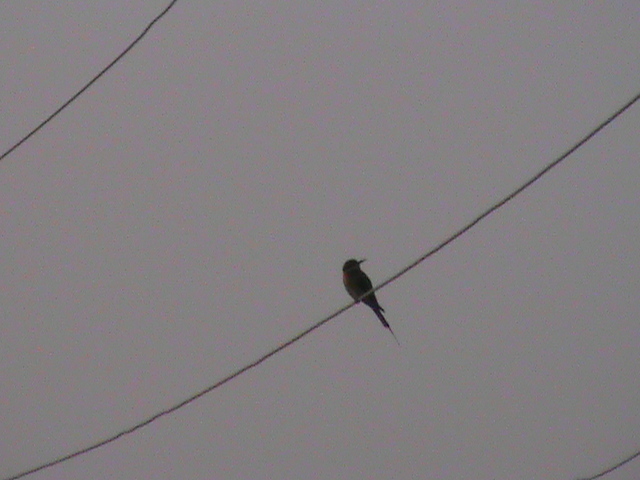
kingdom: Animalia
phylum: Chordata
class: Aves
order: Coraciiformes
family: Meropidae
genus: Merops
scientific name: Merops philippinus
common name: Blue-tailed bee-eater
